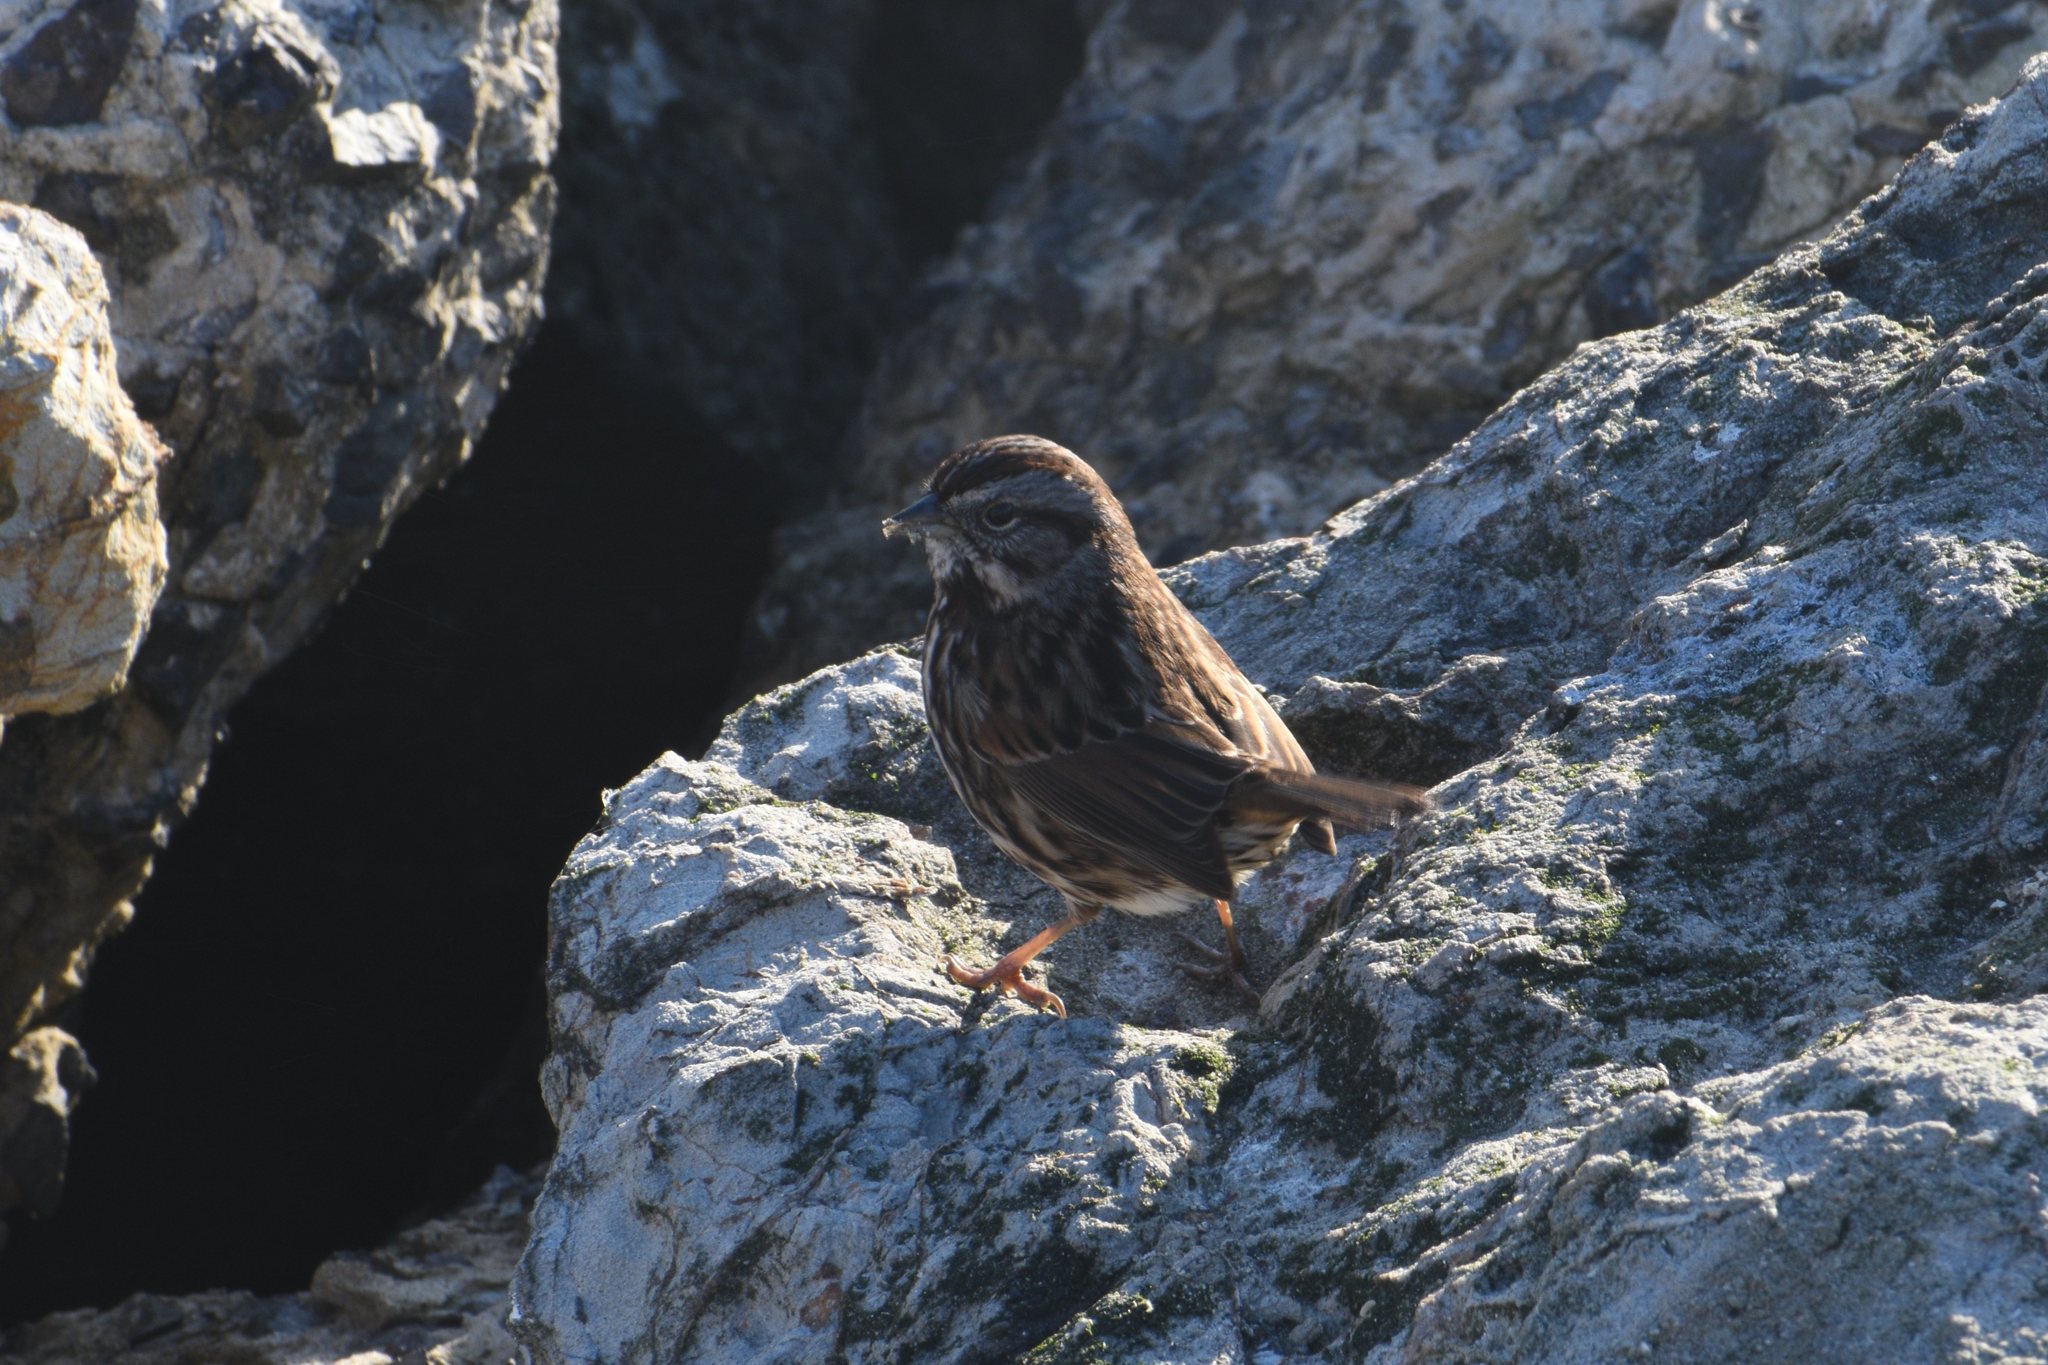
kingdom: Animalia
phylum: Chordata
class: Aves
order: Passeriformes
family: Passerellidae
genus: Melospiza
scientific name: Melospiza melodia
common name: Song sparrow
